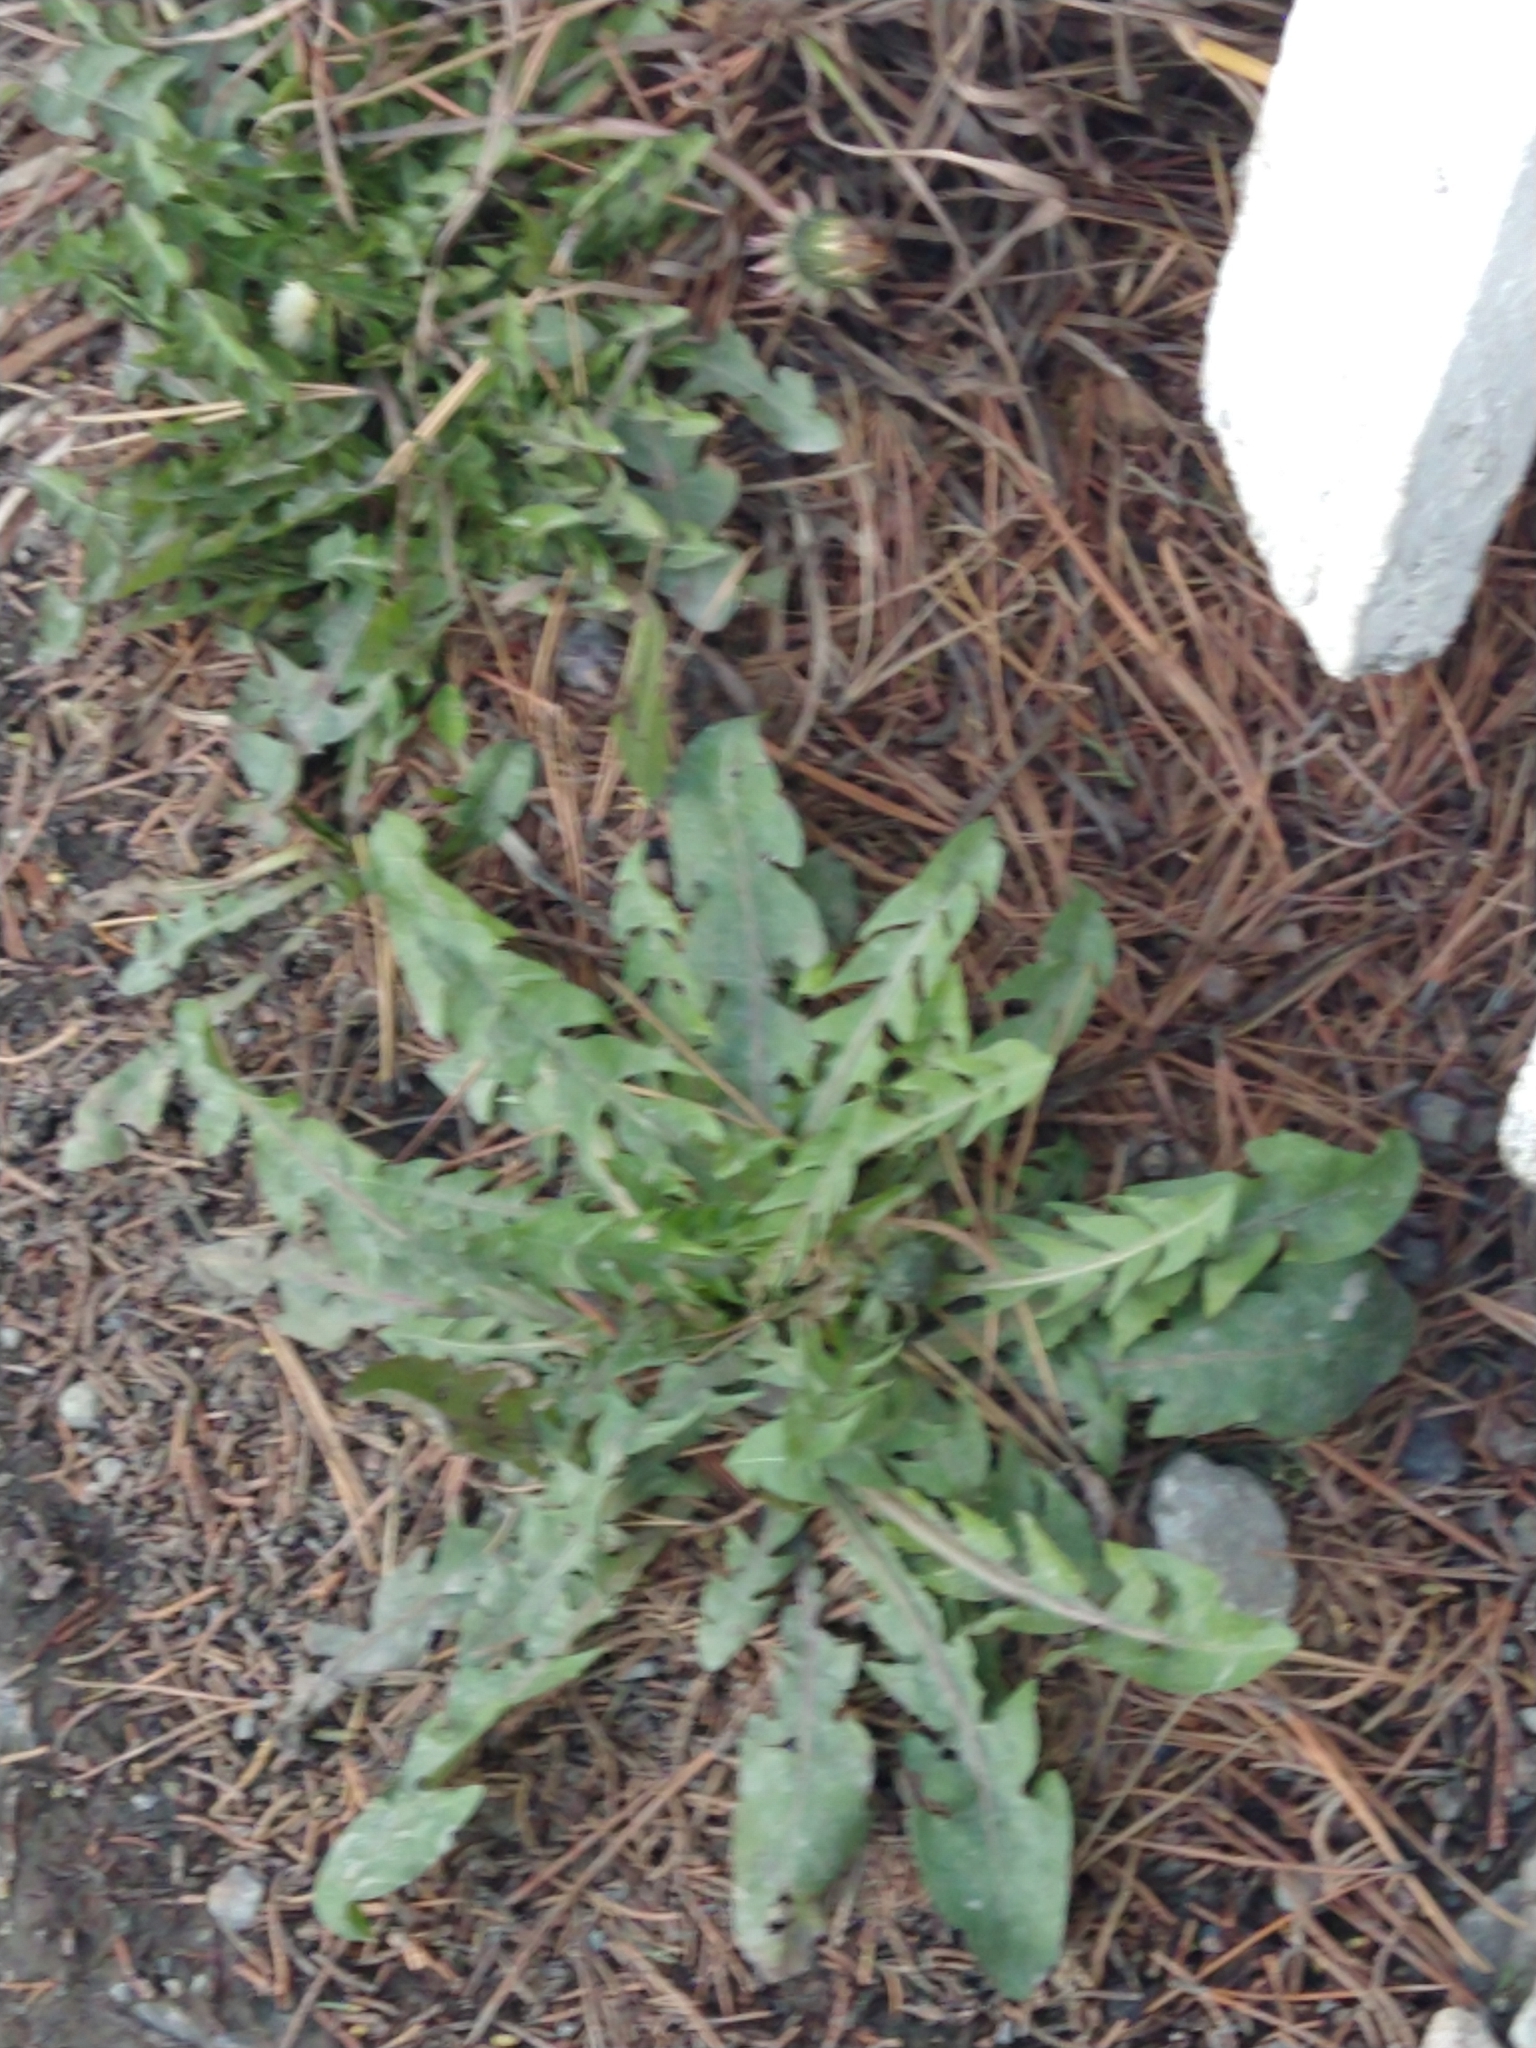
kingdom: Plantae
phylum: Tracheophyta
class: Magnoliopsida
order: Asterales
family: Asteraceae
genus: Taraxacum
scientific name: Taraxacum officinale
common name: Common dandelion
